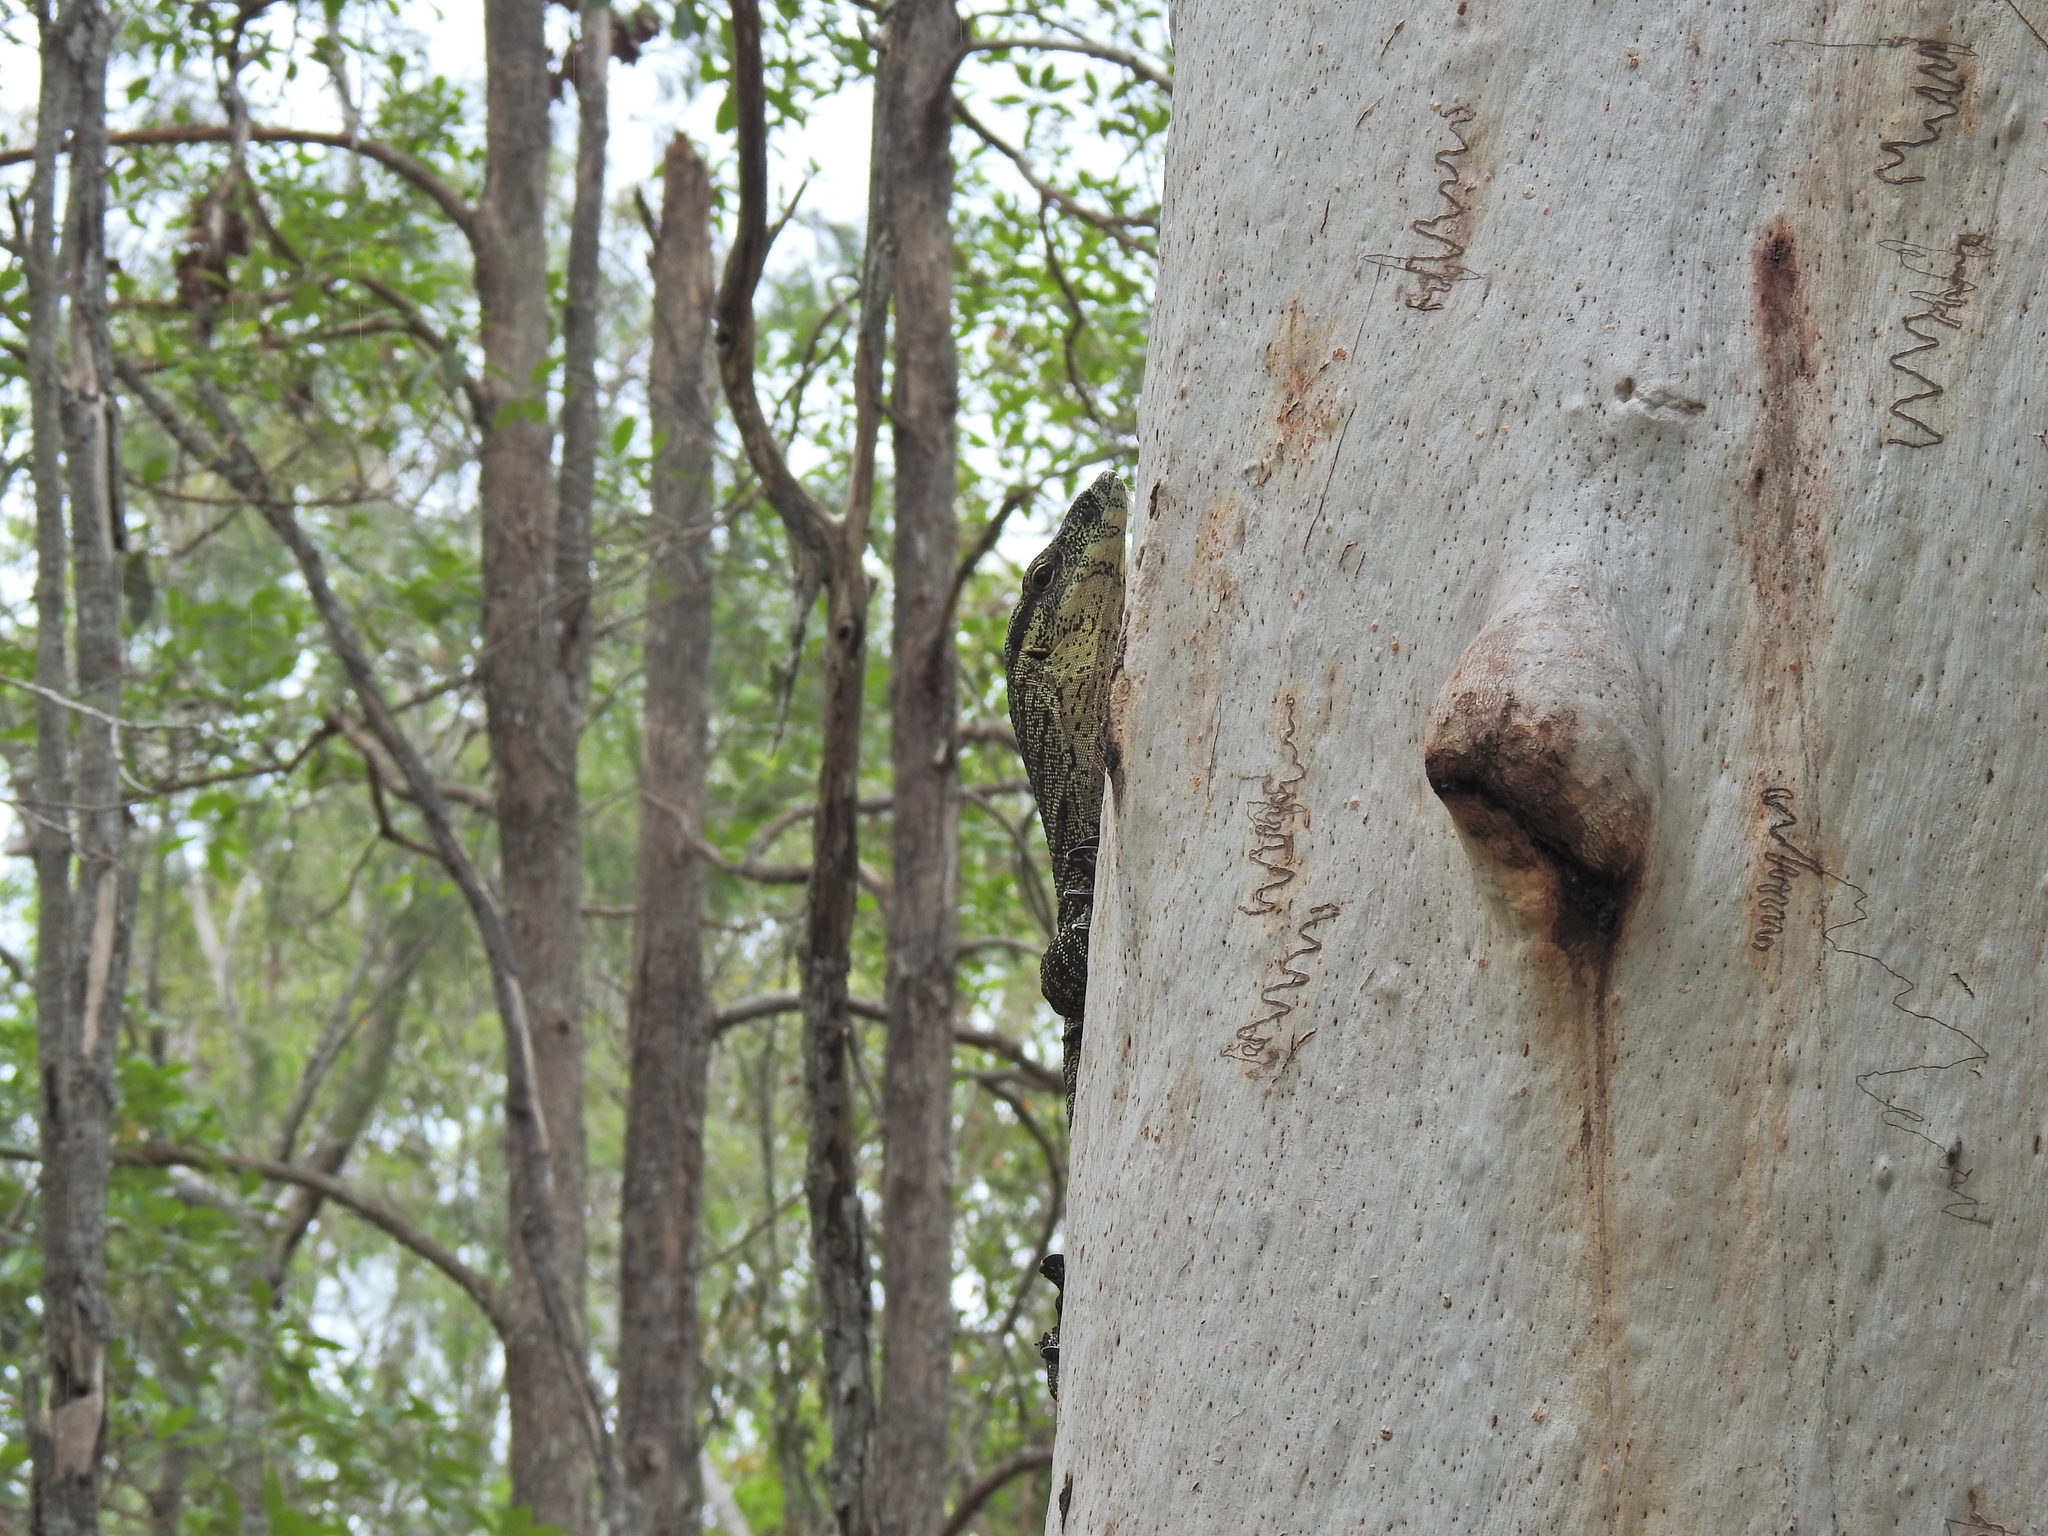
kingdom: Animalia
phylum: Chordata
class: Squamata
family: Varanidae
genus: Varanus
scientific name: Varanus varius
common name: Lace monitor
